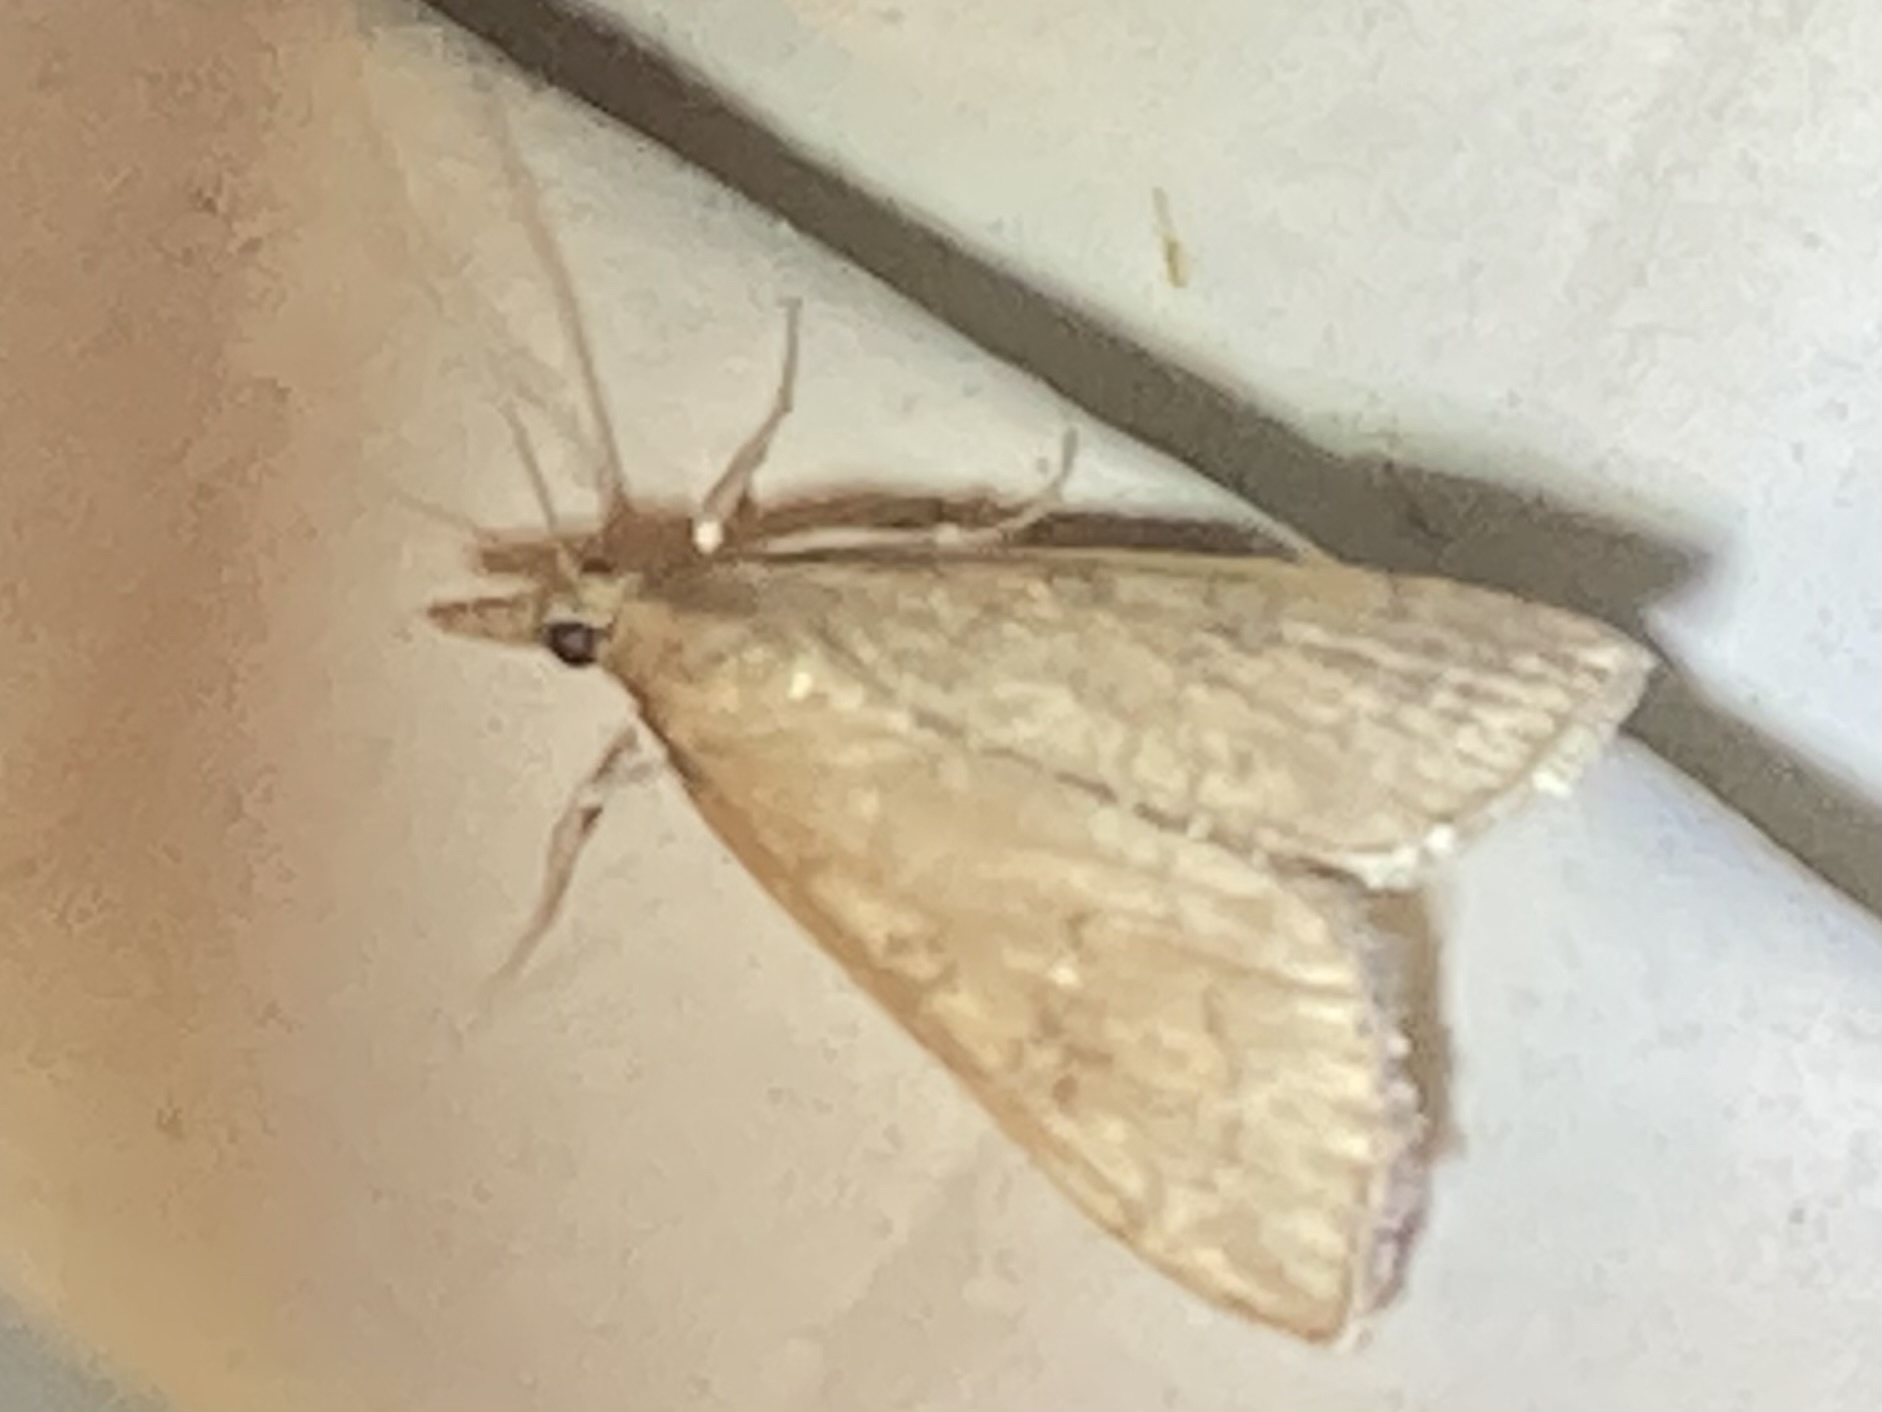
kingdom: Animalia
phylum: Arthropoda
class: Insecta
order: Lepidoptera
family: Crambidae
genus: Udea
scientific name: Udea rubigalis
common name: Celery leaftier moth
